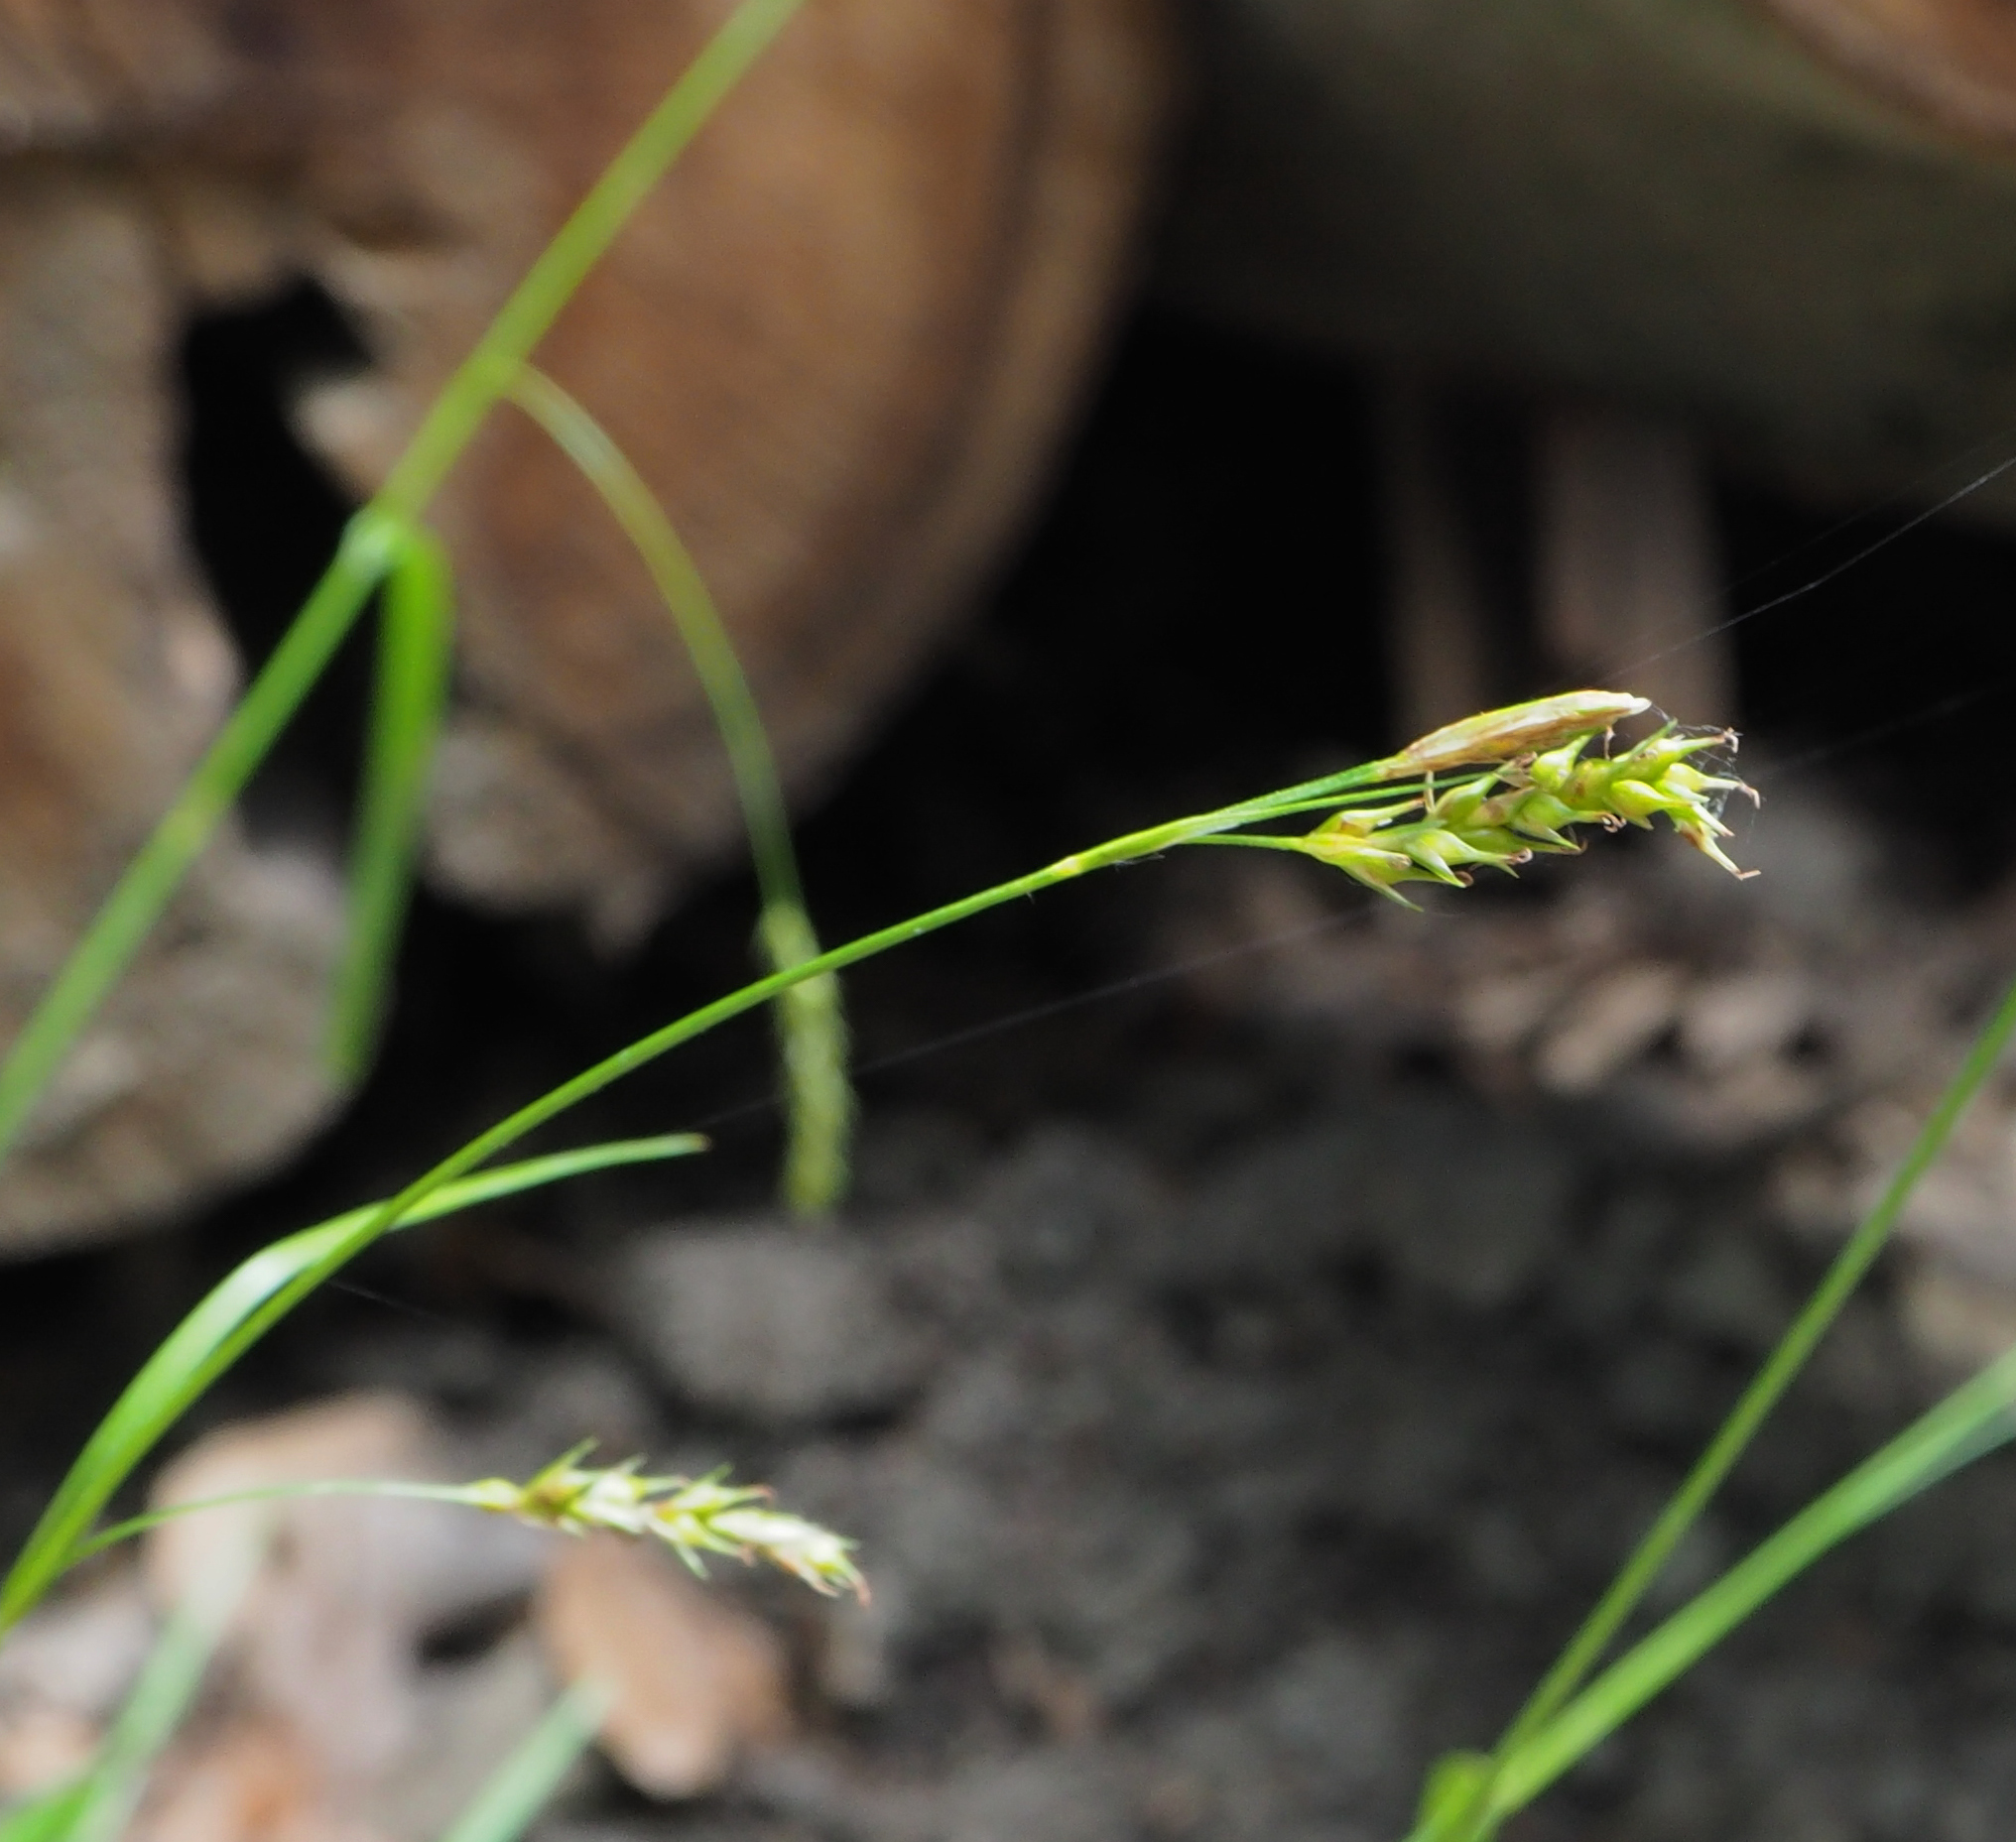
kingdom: Plantae
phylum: Tracheophyta
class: Liliopsida
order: Poales
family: Cyperaceae
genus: Carex
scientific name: Carex sylvatica
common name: Wood-sedge
